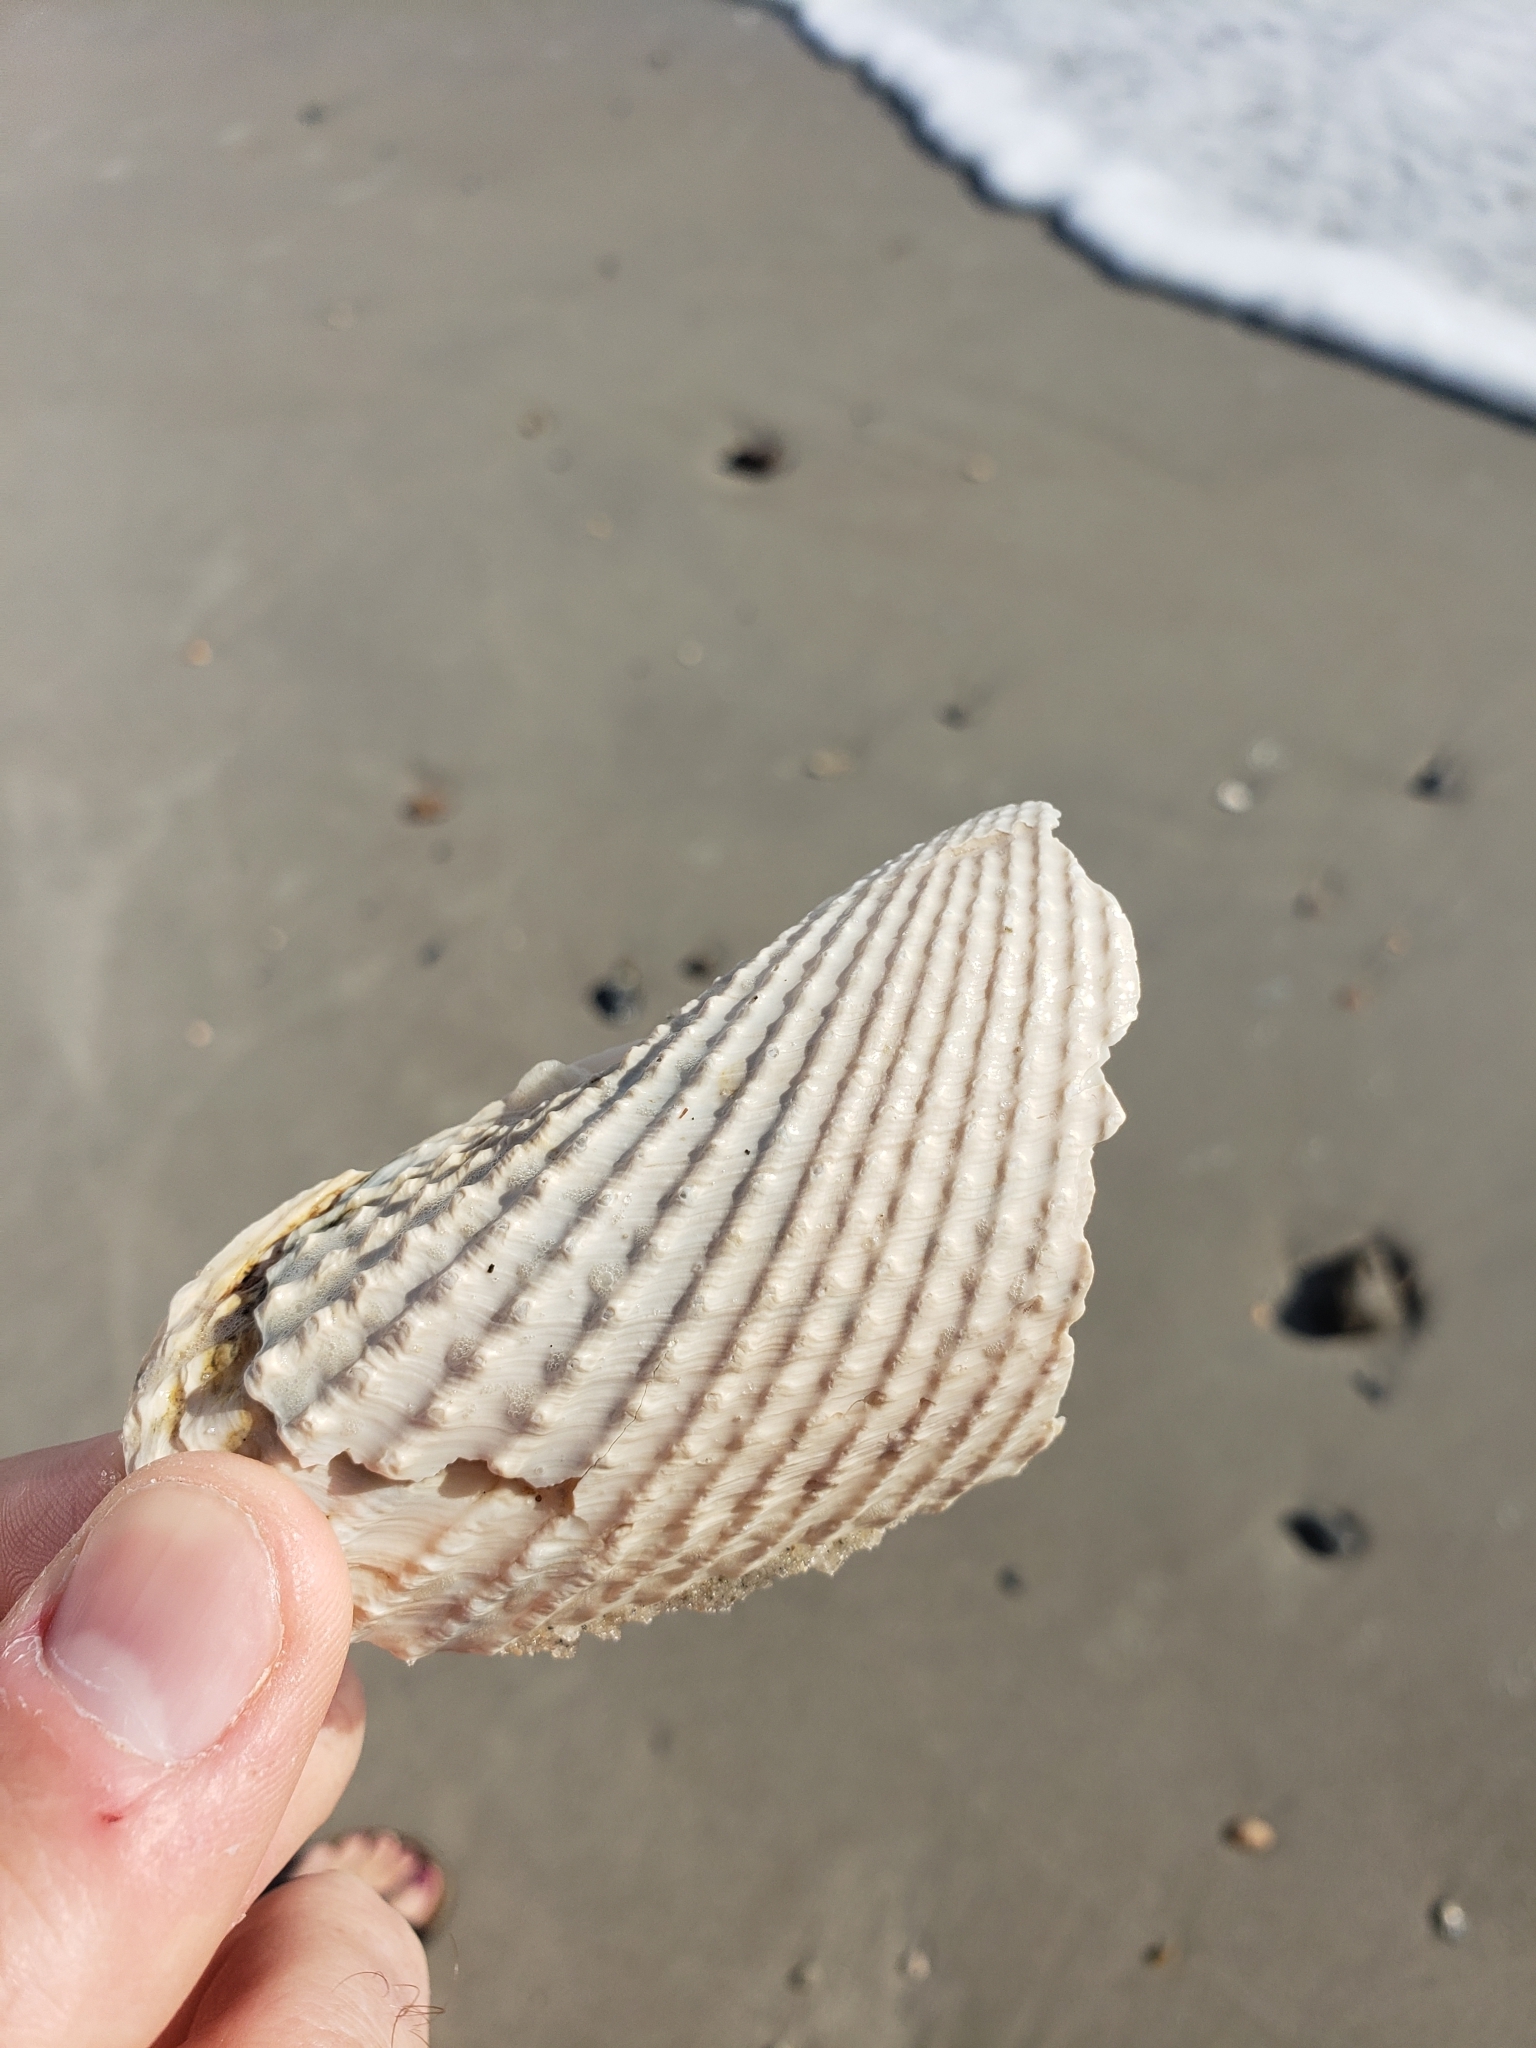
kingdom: Animalia
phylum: Mollusca
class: Bivalvia
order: Myida
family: Pholadidae
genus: Cyrtopleura
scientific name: Cyrtopleura costata
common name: Angel wing
